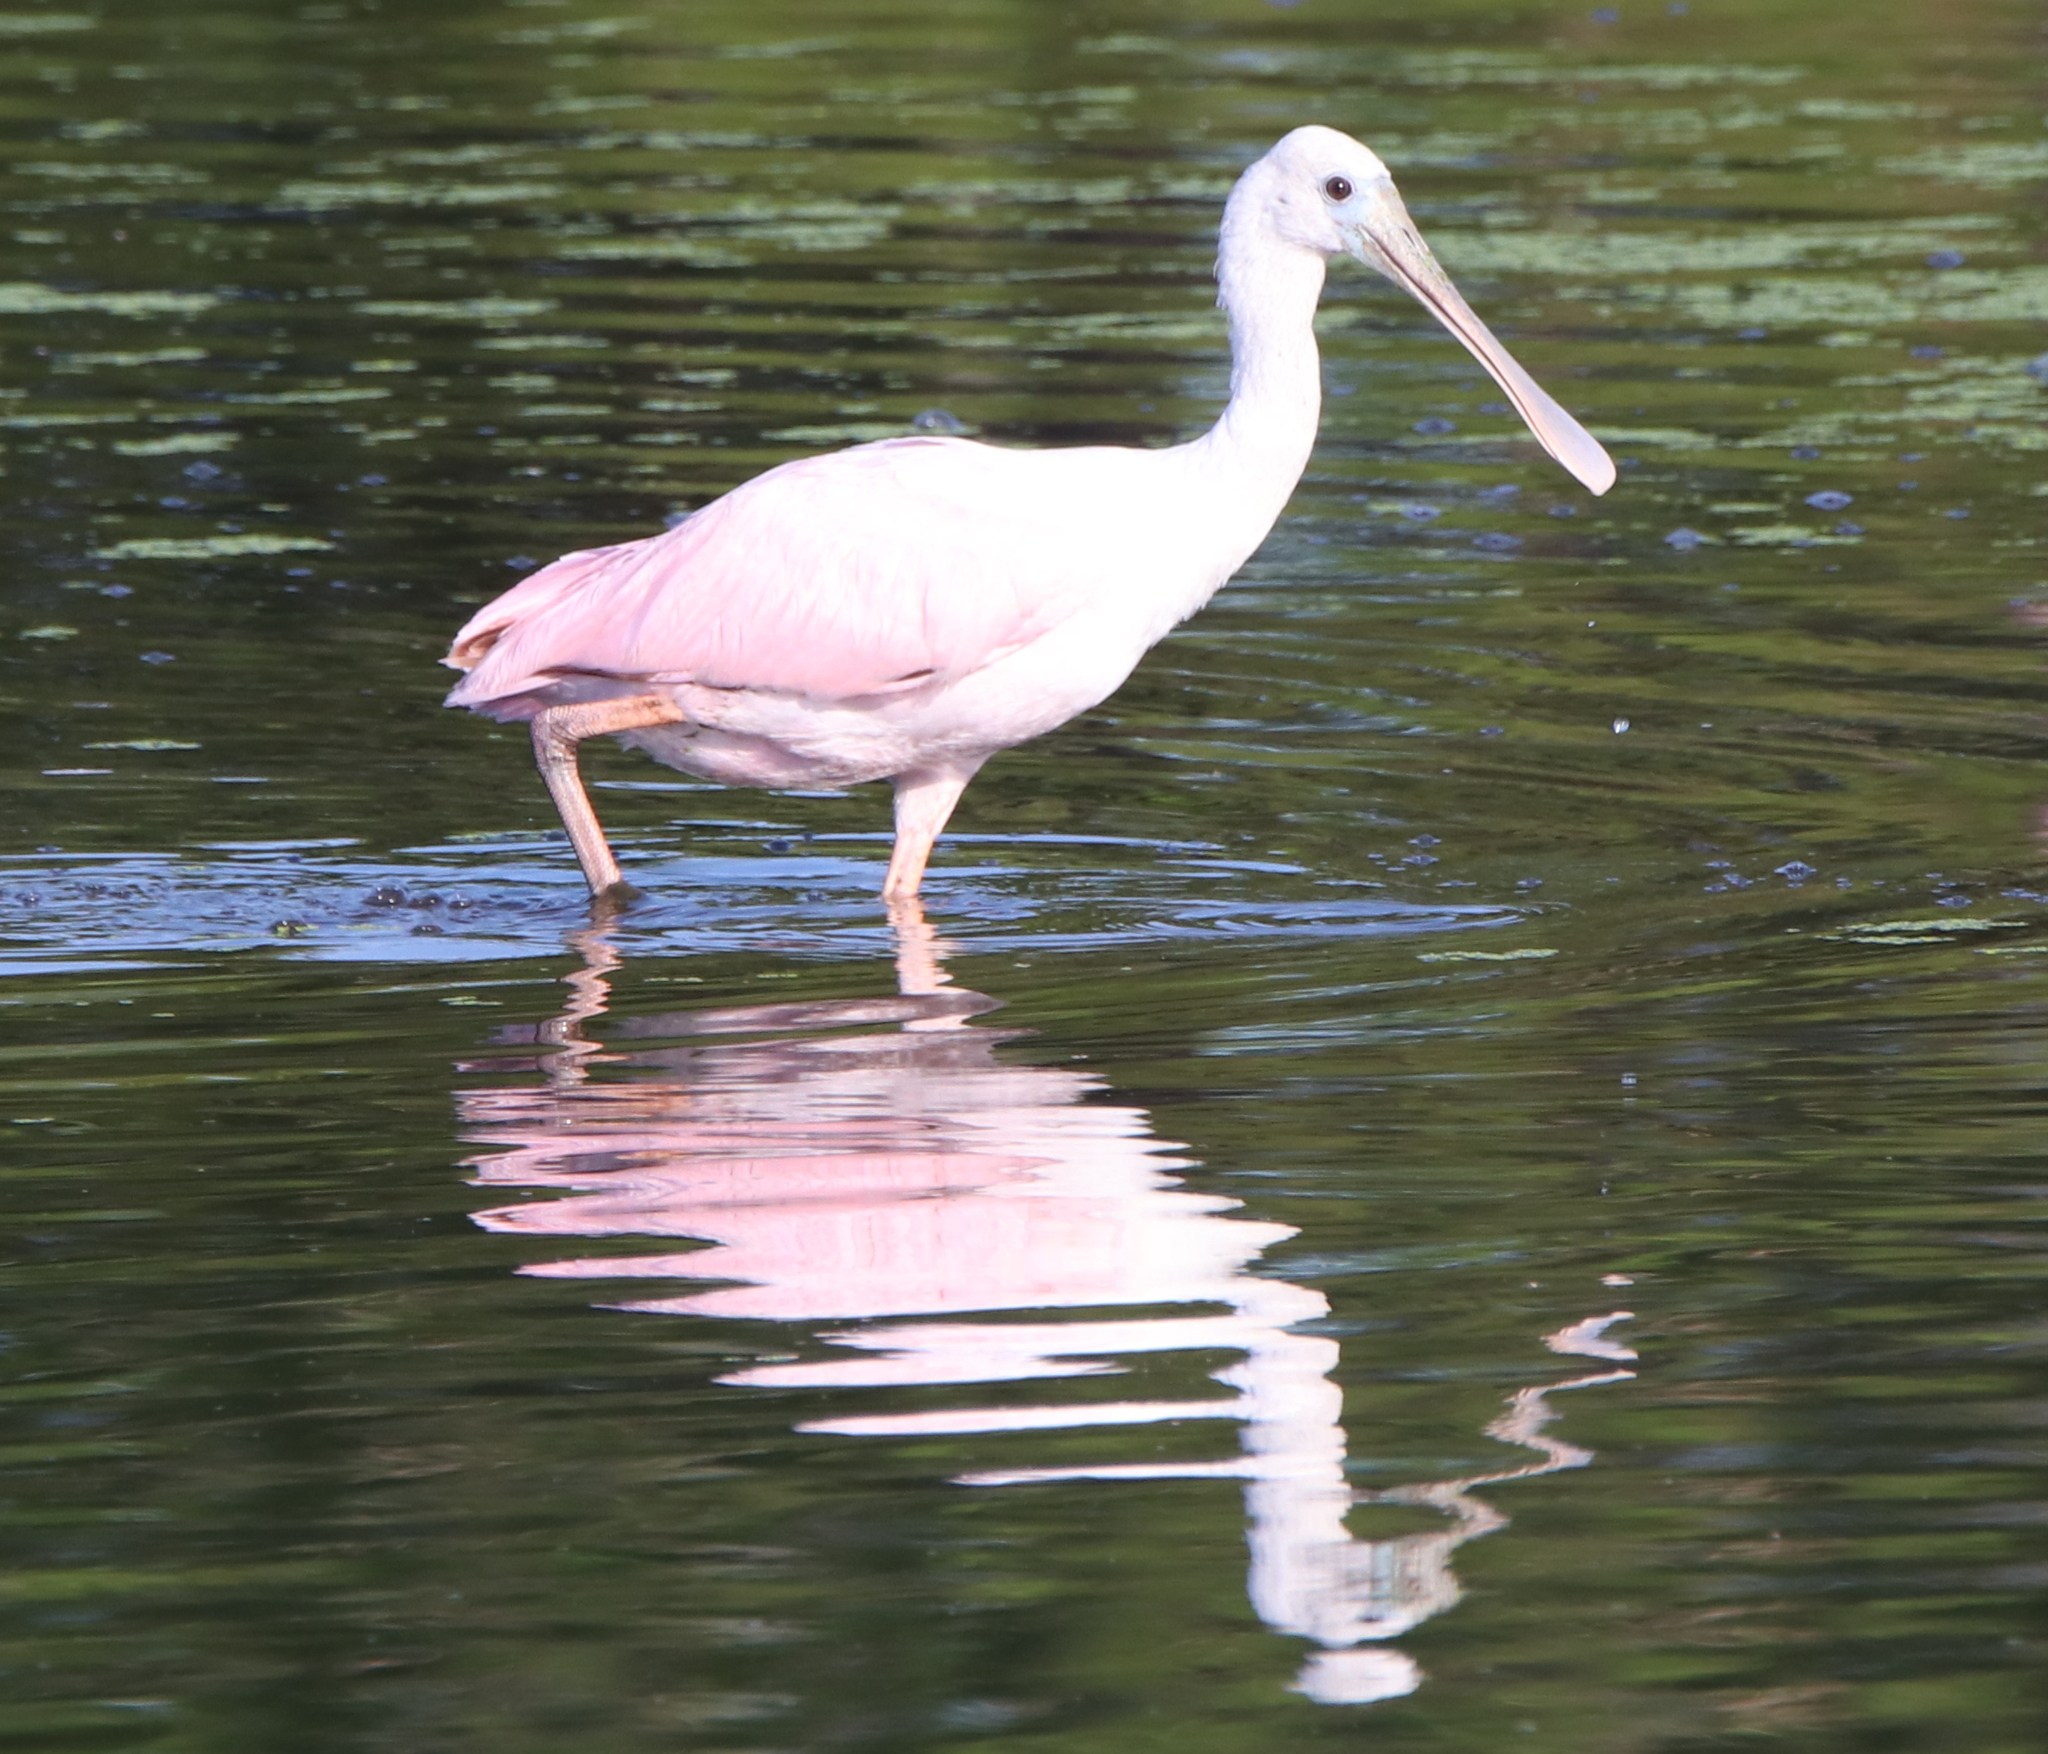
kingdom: Animalia
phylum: Chordata
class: Aves
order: Pelecaniformes
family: Threskiornithidae
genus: Platalea
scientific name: Platalea ajaja
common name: Roseate spoonbill
